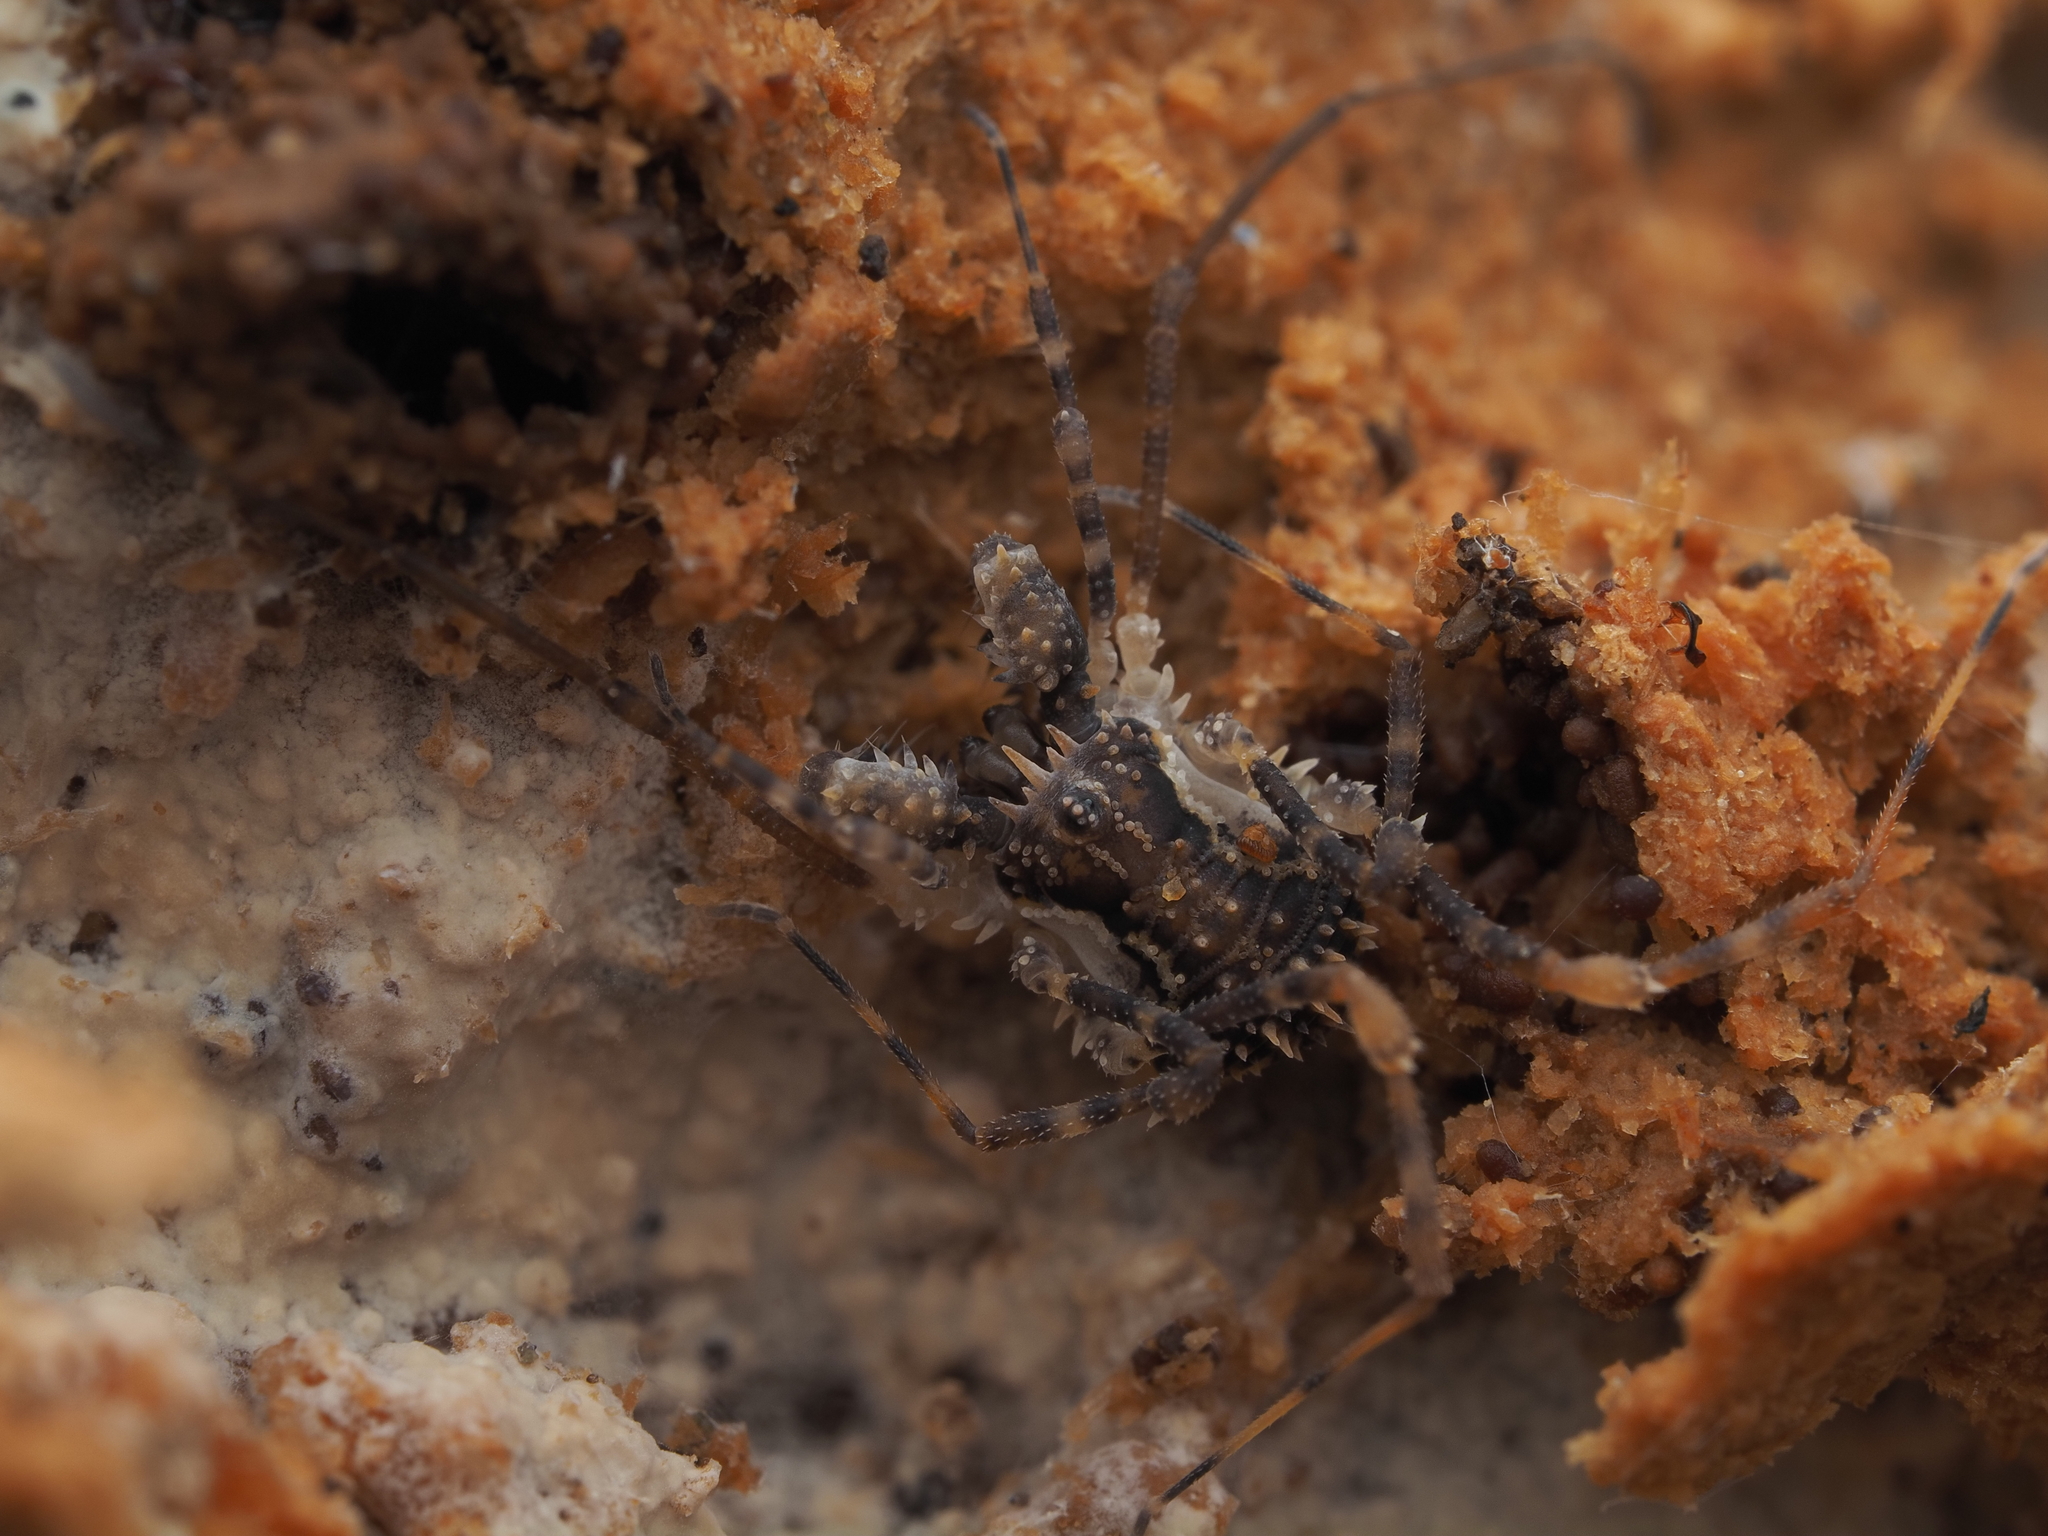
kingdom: Animalia
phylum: Arthropoda
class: Arachnida
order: Opiliones
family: Triaenonychidae
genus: Algidia
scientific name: Algidia nigriflava
